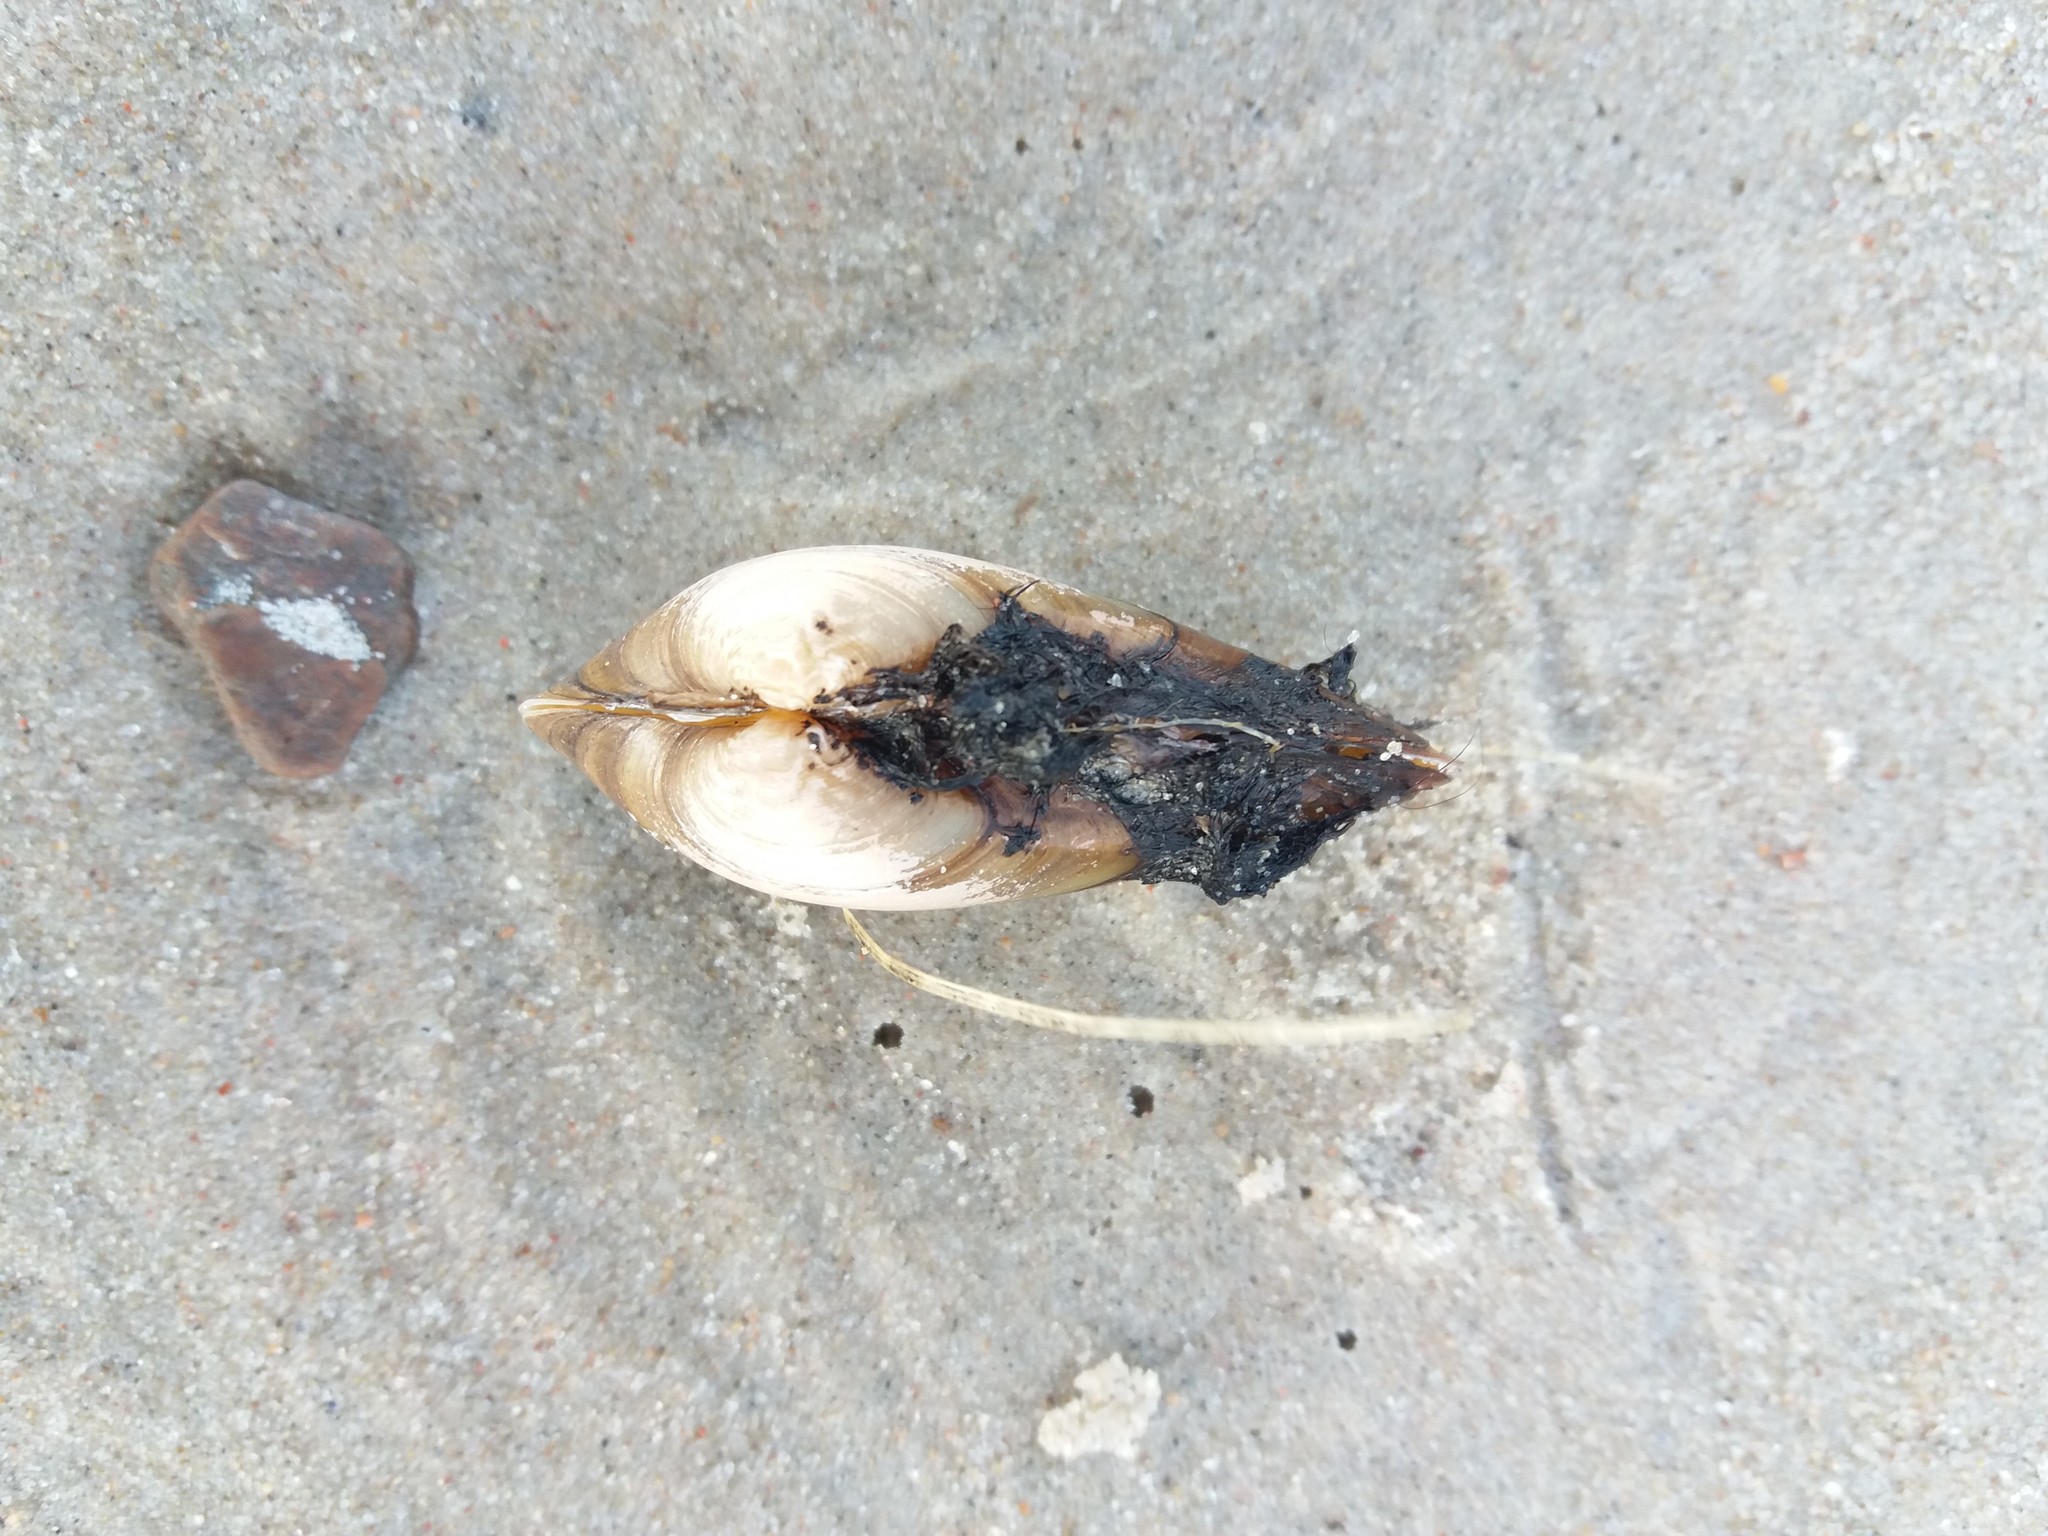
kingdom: Animalia
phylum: Mollusca
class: Bivalvia
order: Unionida
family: Unionidae
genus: Unio
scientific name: Unio tumidus
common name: Swollen river mussel
